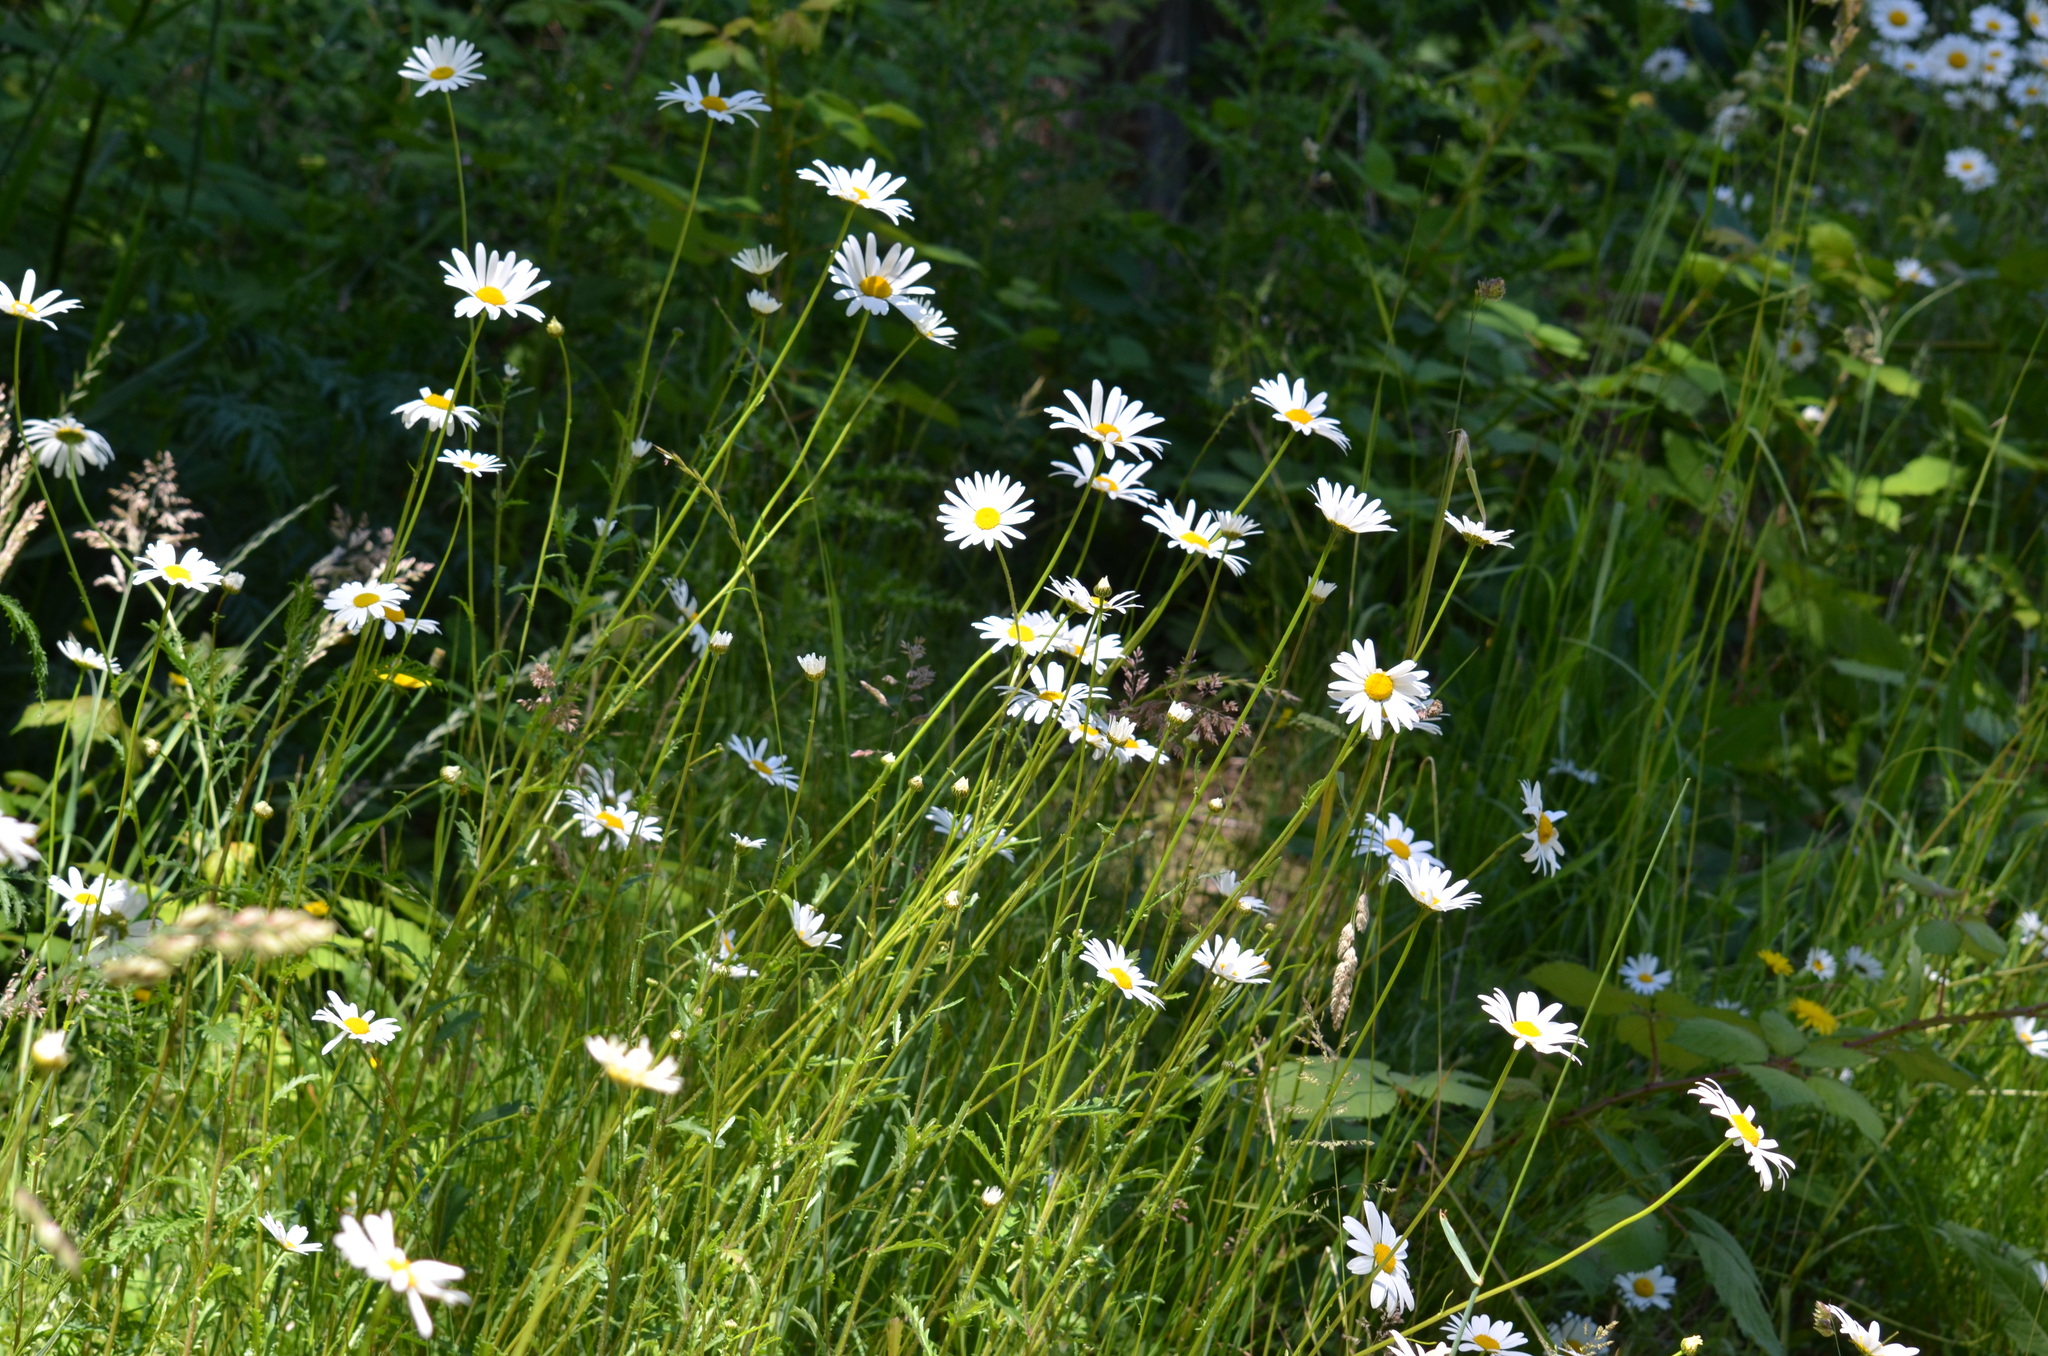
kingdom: Plantae
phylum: Tracheophyta
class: Magnoliopsida
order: Asterales
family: Asteraceae
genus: Leucanthemum
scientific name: Leucanthemum vulgare
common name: Oxeye daisy
